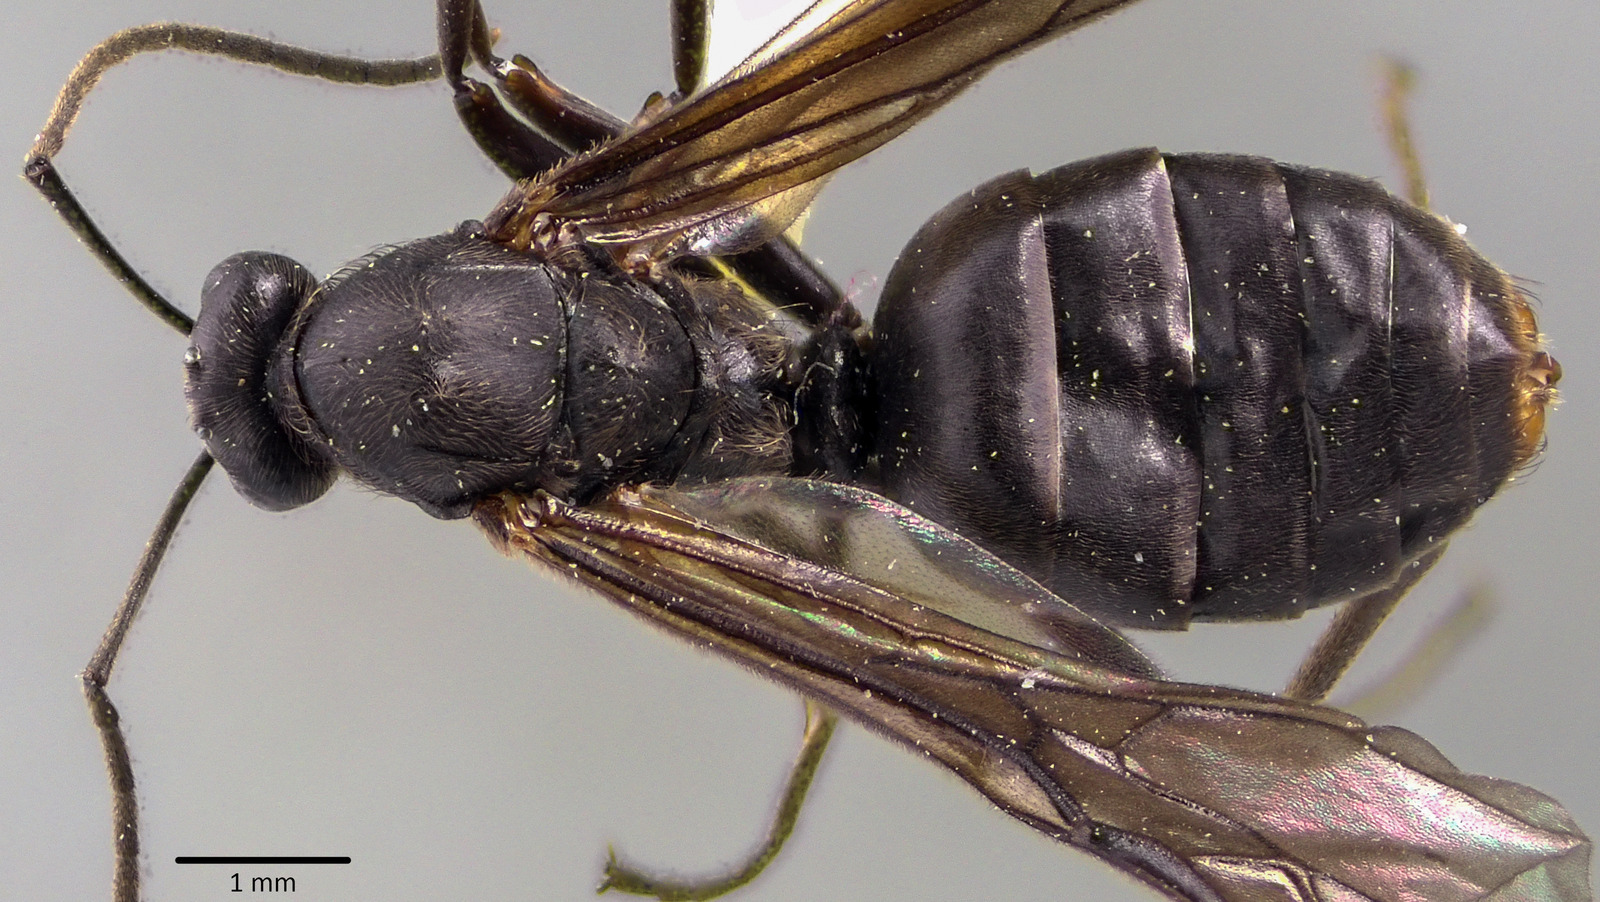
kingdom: Animalia
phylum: Arthropoda
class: Insecta
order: Hymenoptera
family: Formicidae
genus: Formica
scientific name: Formica prociliata
